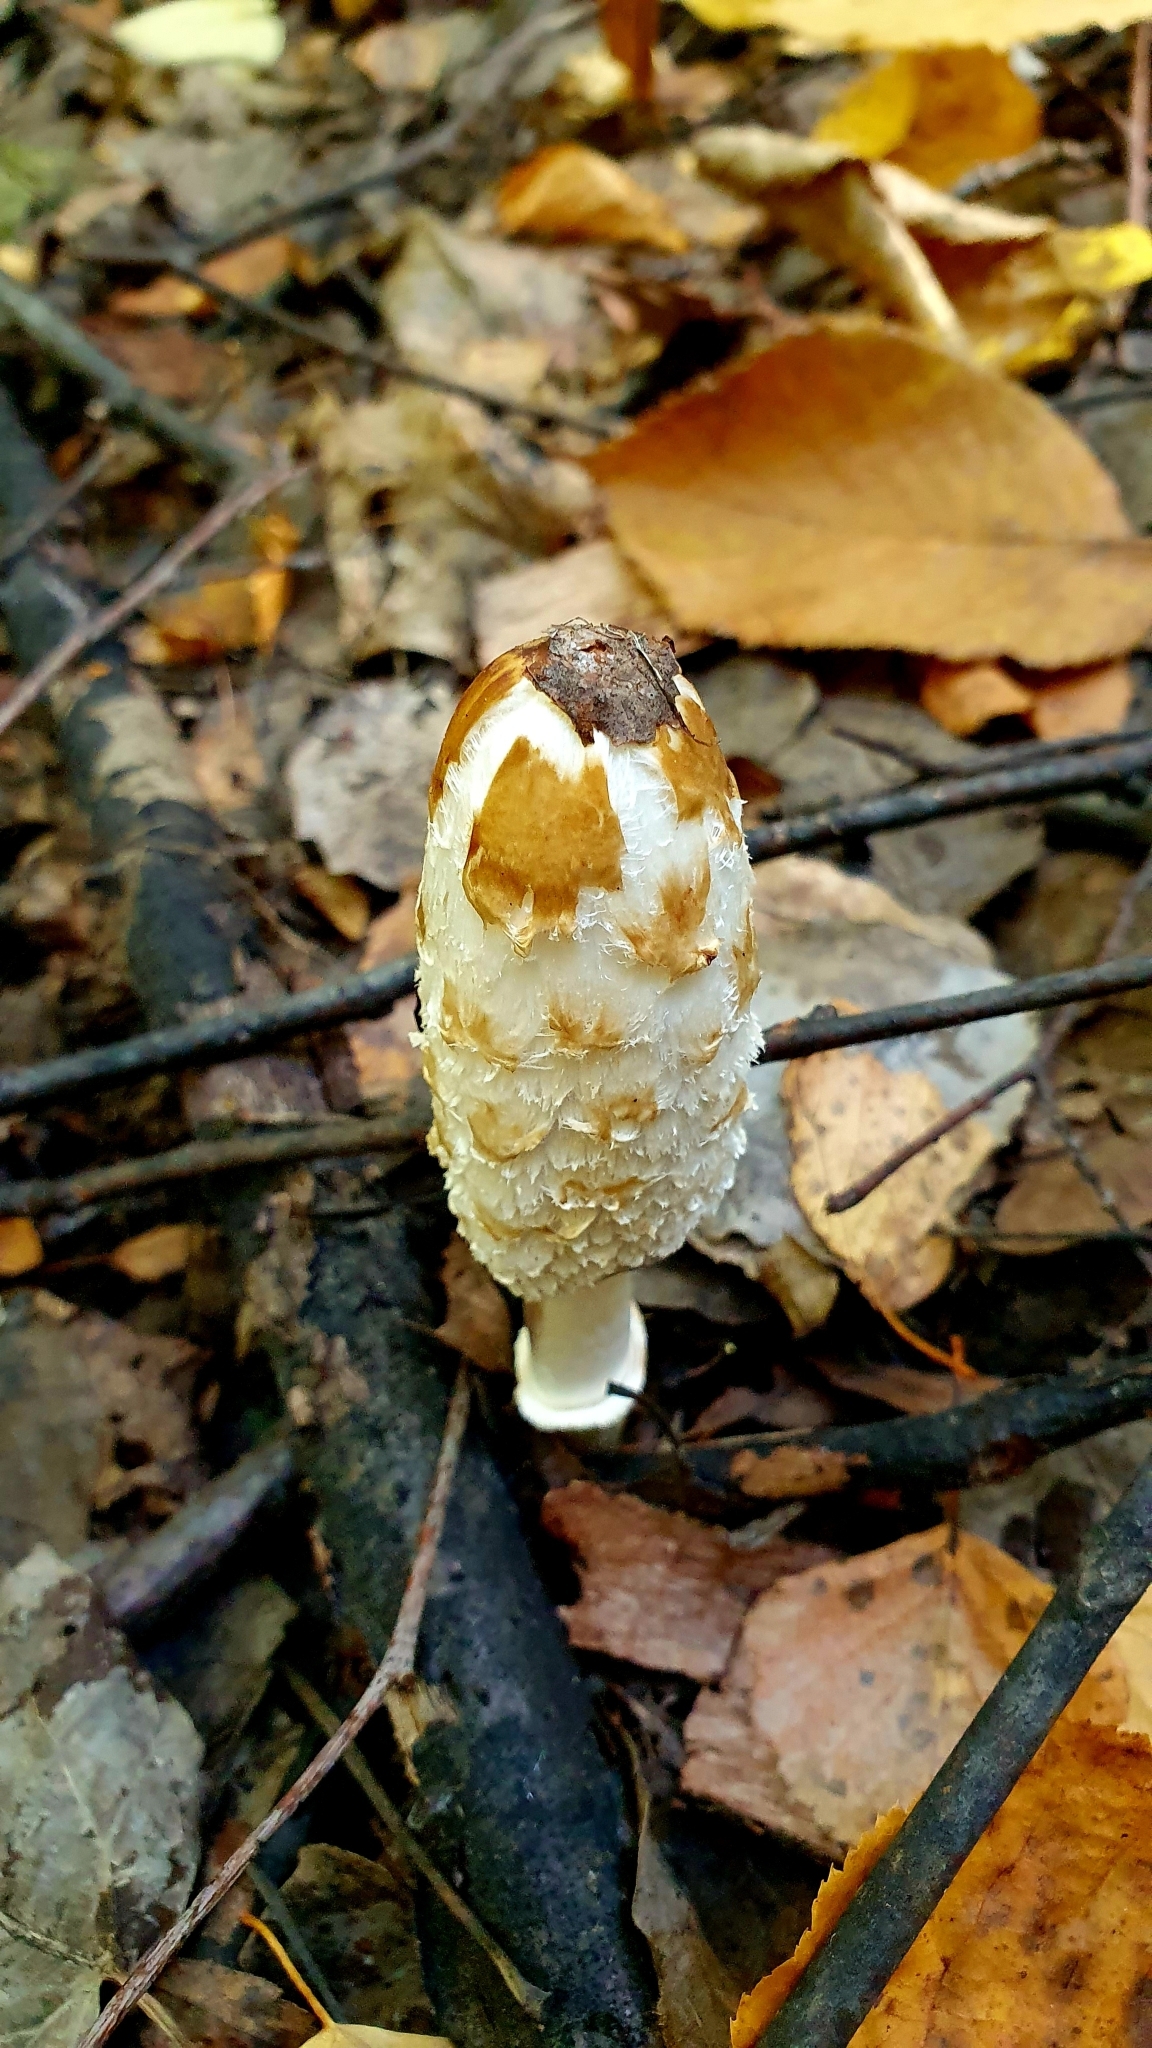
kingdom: Fungi
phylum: Basidiomycota
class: Agaricomycetes
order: Agaricales
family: Agaricaceae
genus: Coprinus
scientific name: Coprinus comatus
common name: Lawyer's wig
